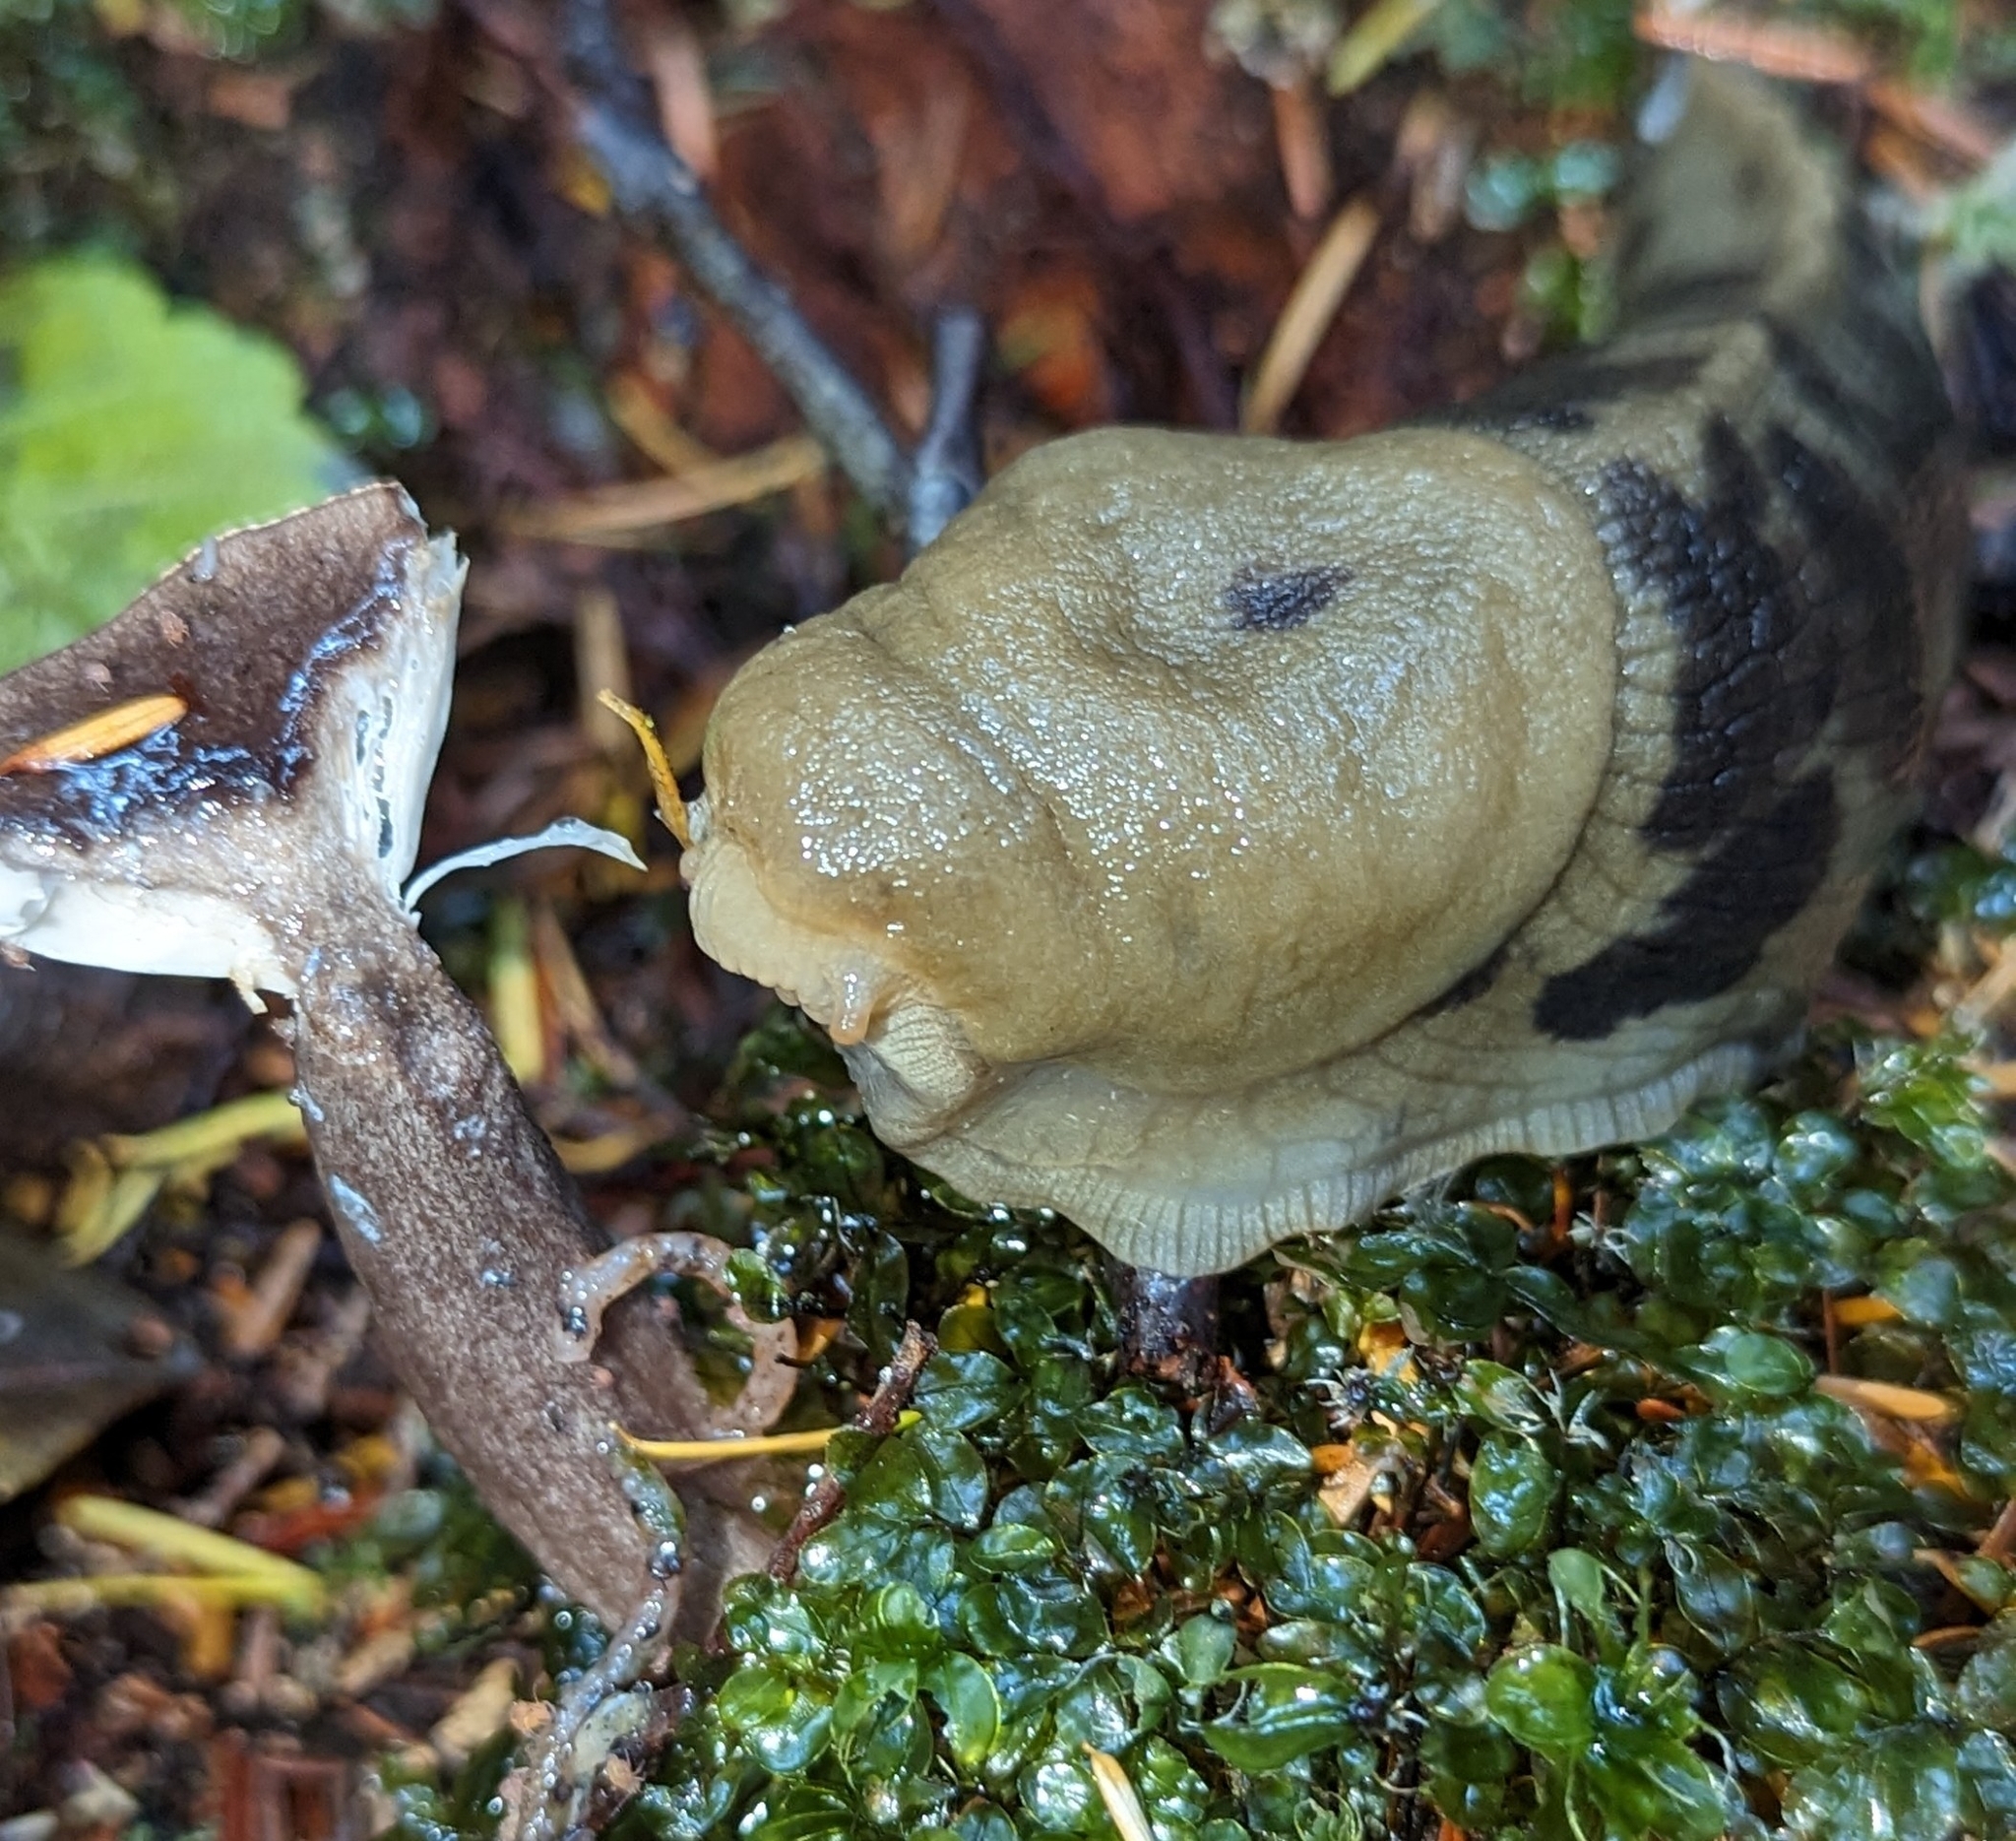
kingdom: Animalia
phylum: Mollusca
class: Gastropoda
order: Stylommatophora
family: Ariolimacidae
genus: Ariolimax
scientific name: Ariolimax columbianus
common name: Pacific banana slug
